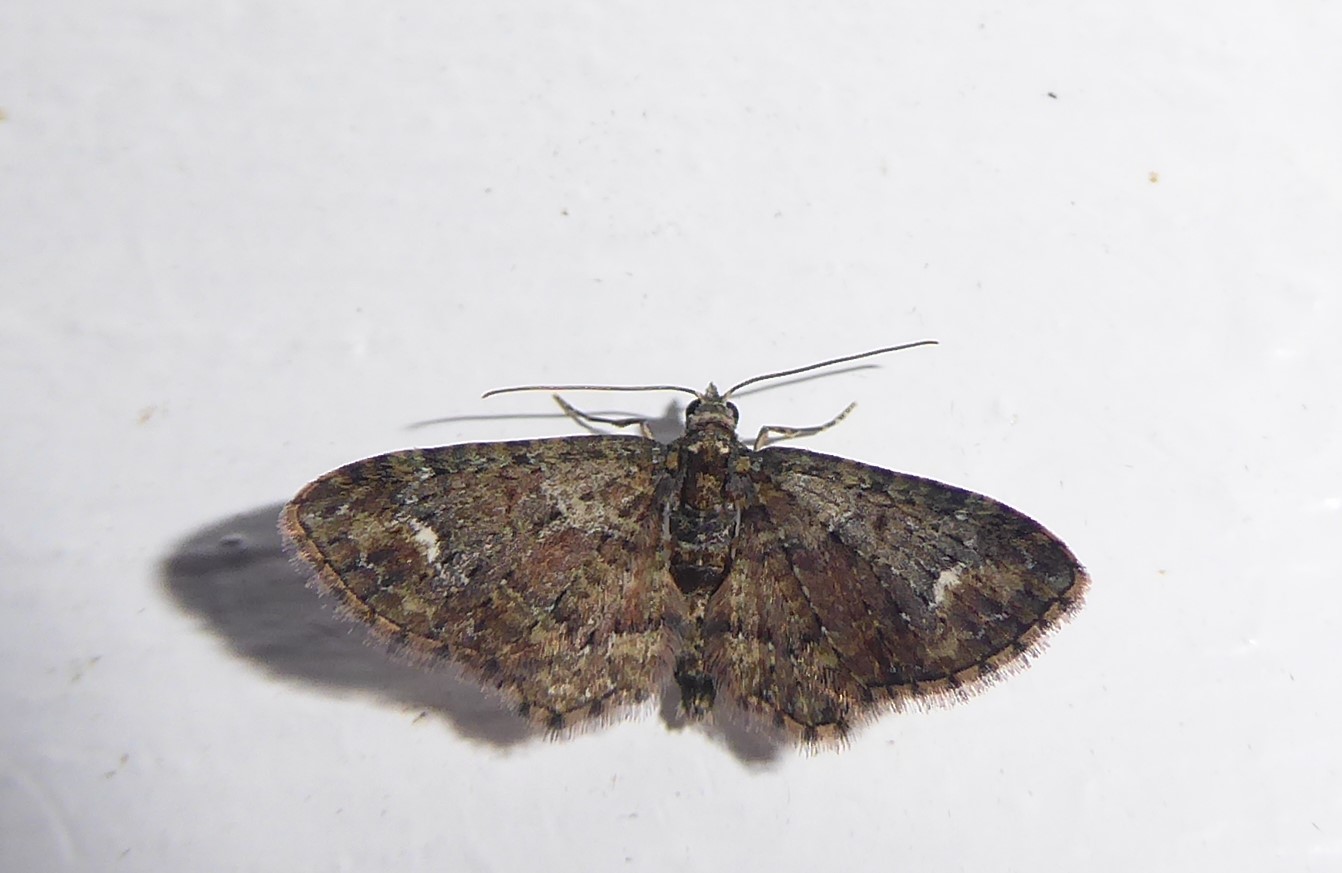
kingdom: Animalia
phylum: Arthropoda
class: Insecta
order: Lepidoptera
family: Geometridae
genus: Pasiphilodes
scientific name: Pasiphilodes testulata
